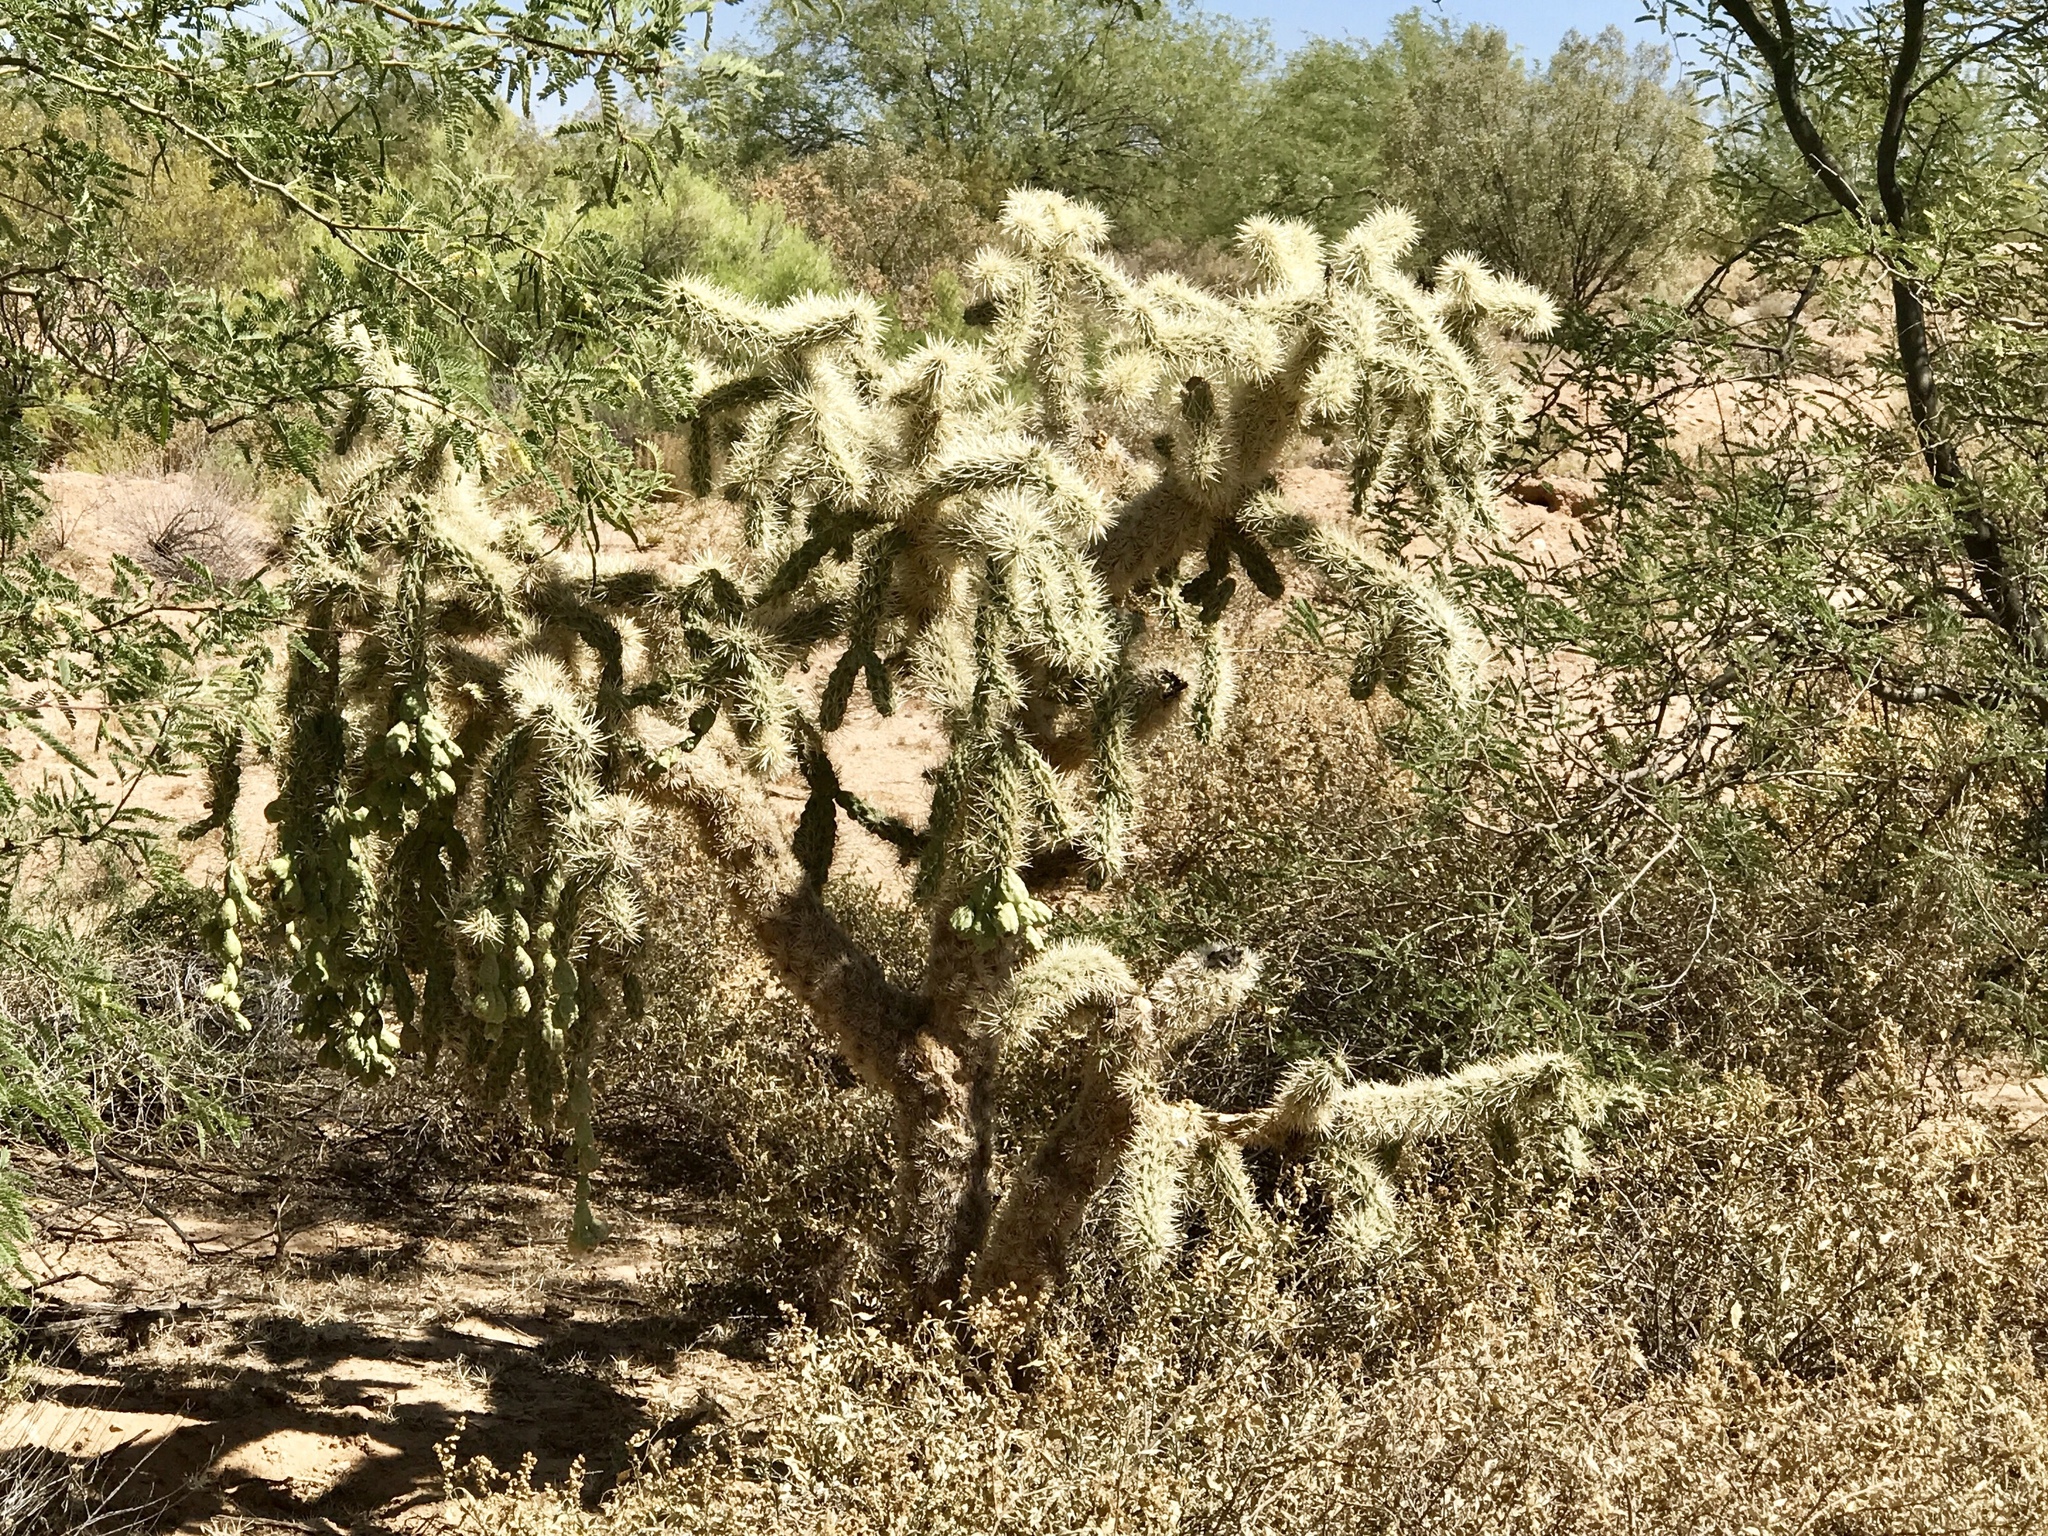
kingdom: Plantae
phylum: Tracheophyta
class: Magnoliopsida
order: Caryophyllales
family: Cactaceae
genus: Cylindropuntia
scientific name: Cylindropuntia fulgida
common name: Jumping cholla
